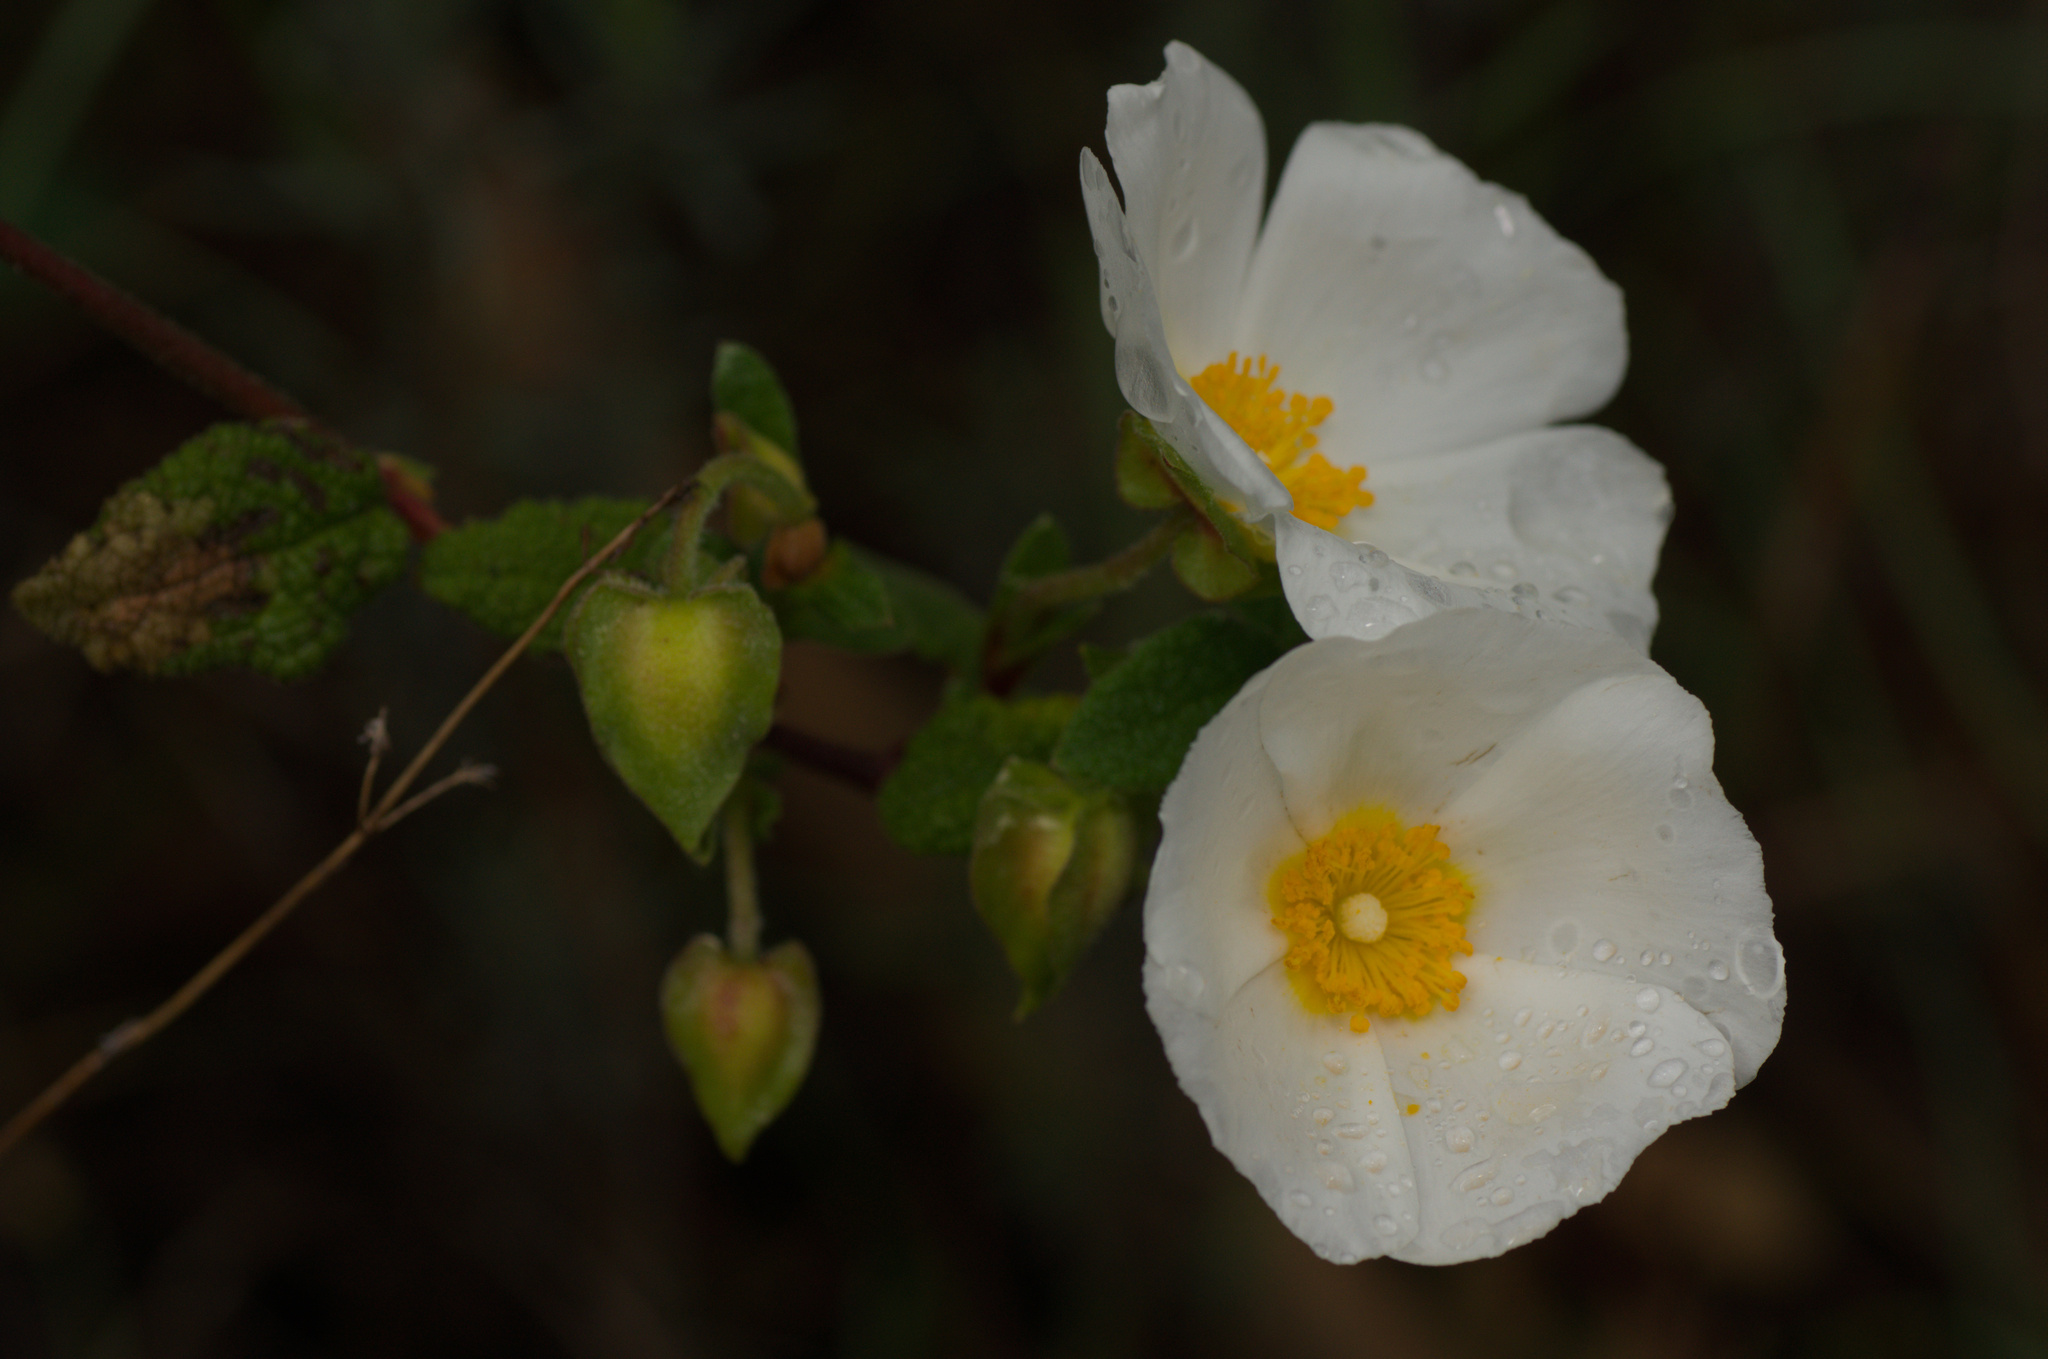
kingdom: Plantae
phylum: Tracheophyta
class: Magnoliopsida
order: Malvales
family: Cistaceae
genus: Cistus
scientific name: Cistus salviifolius
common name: Salvia cistus
